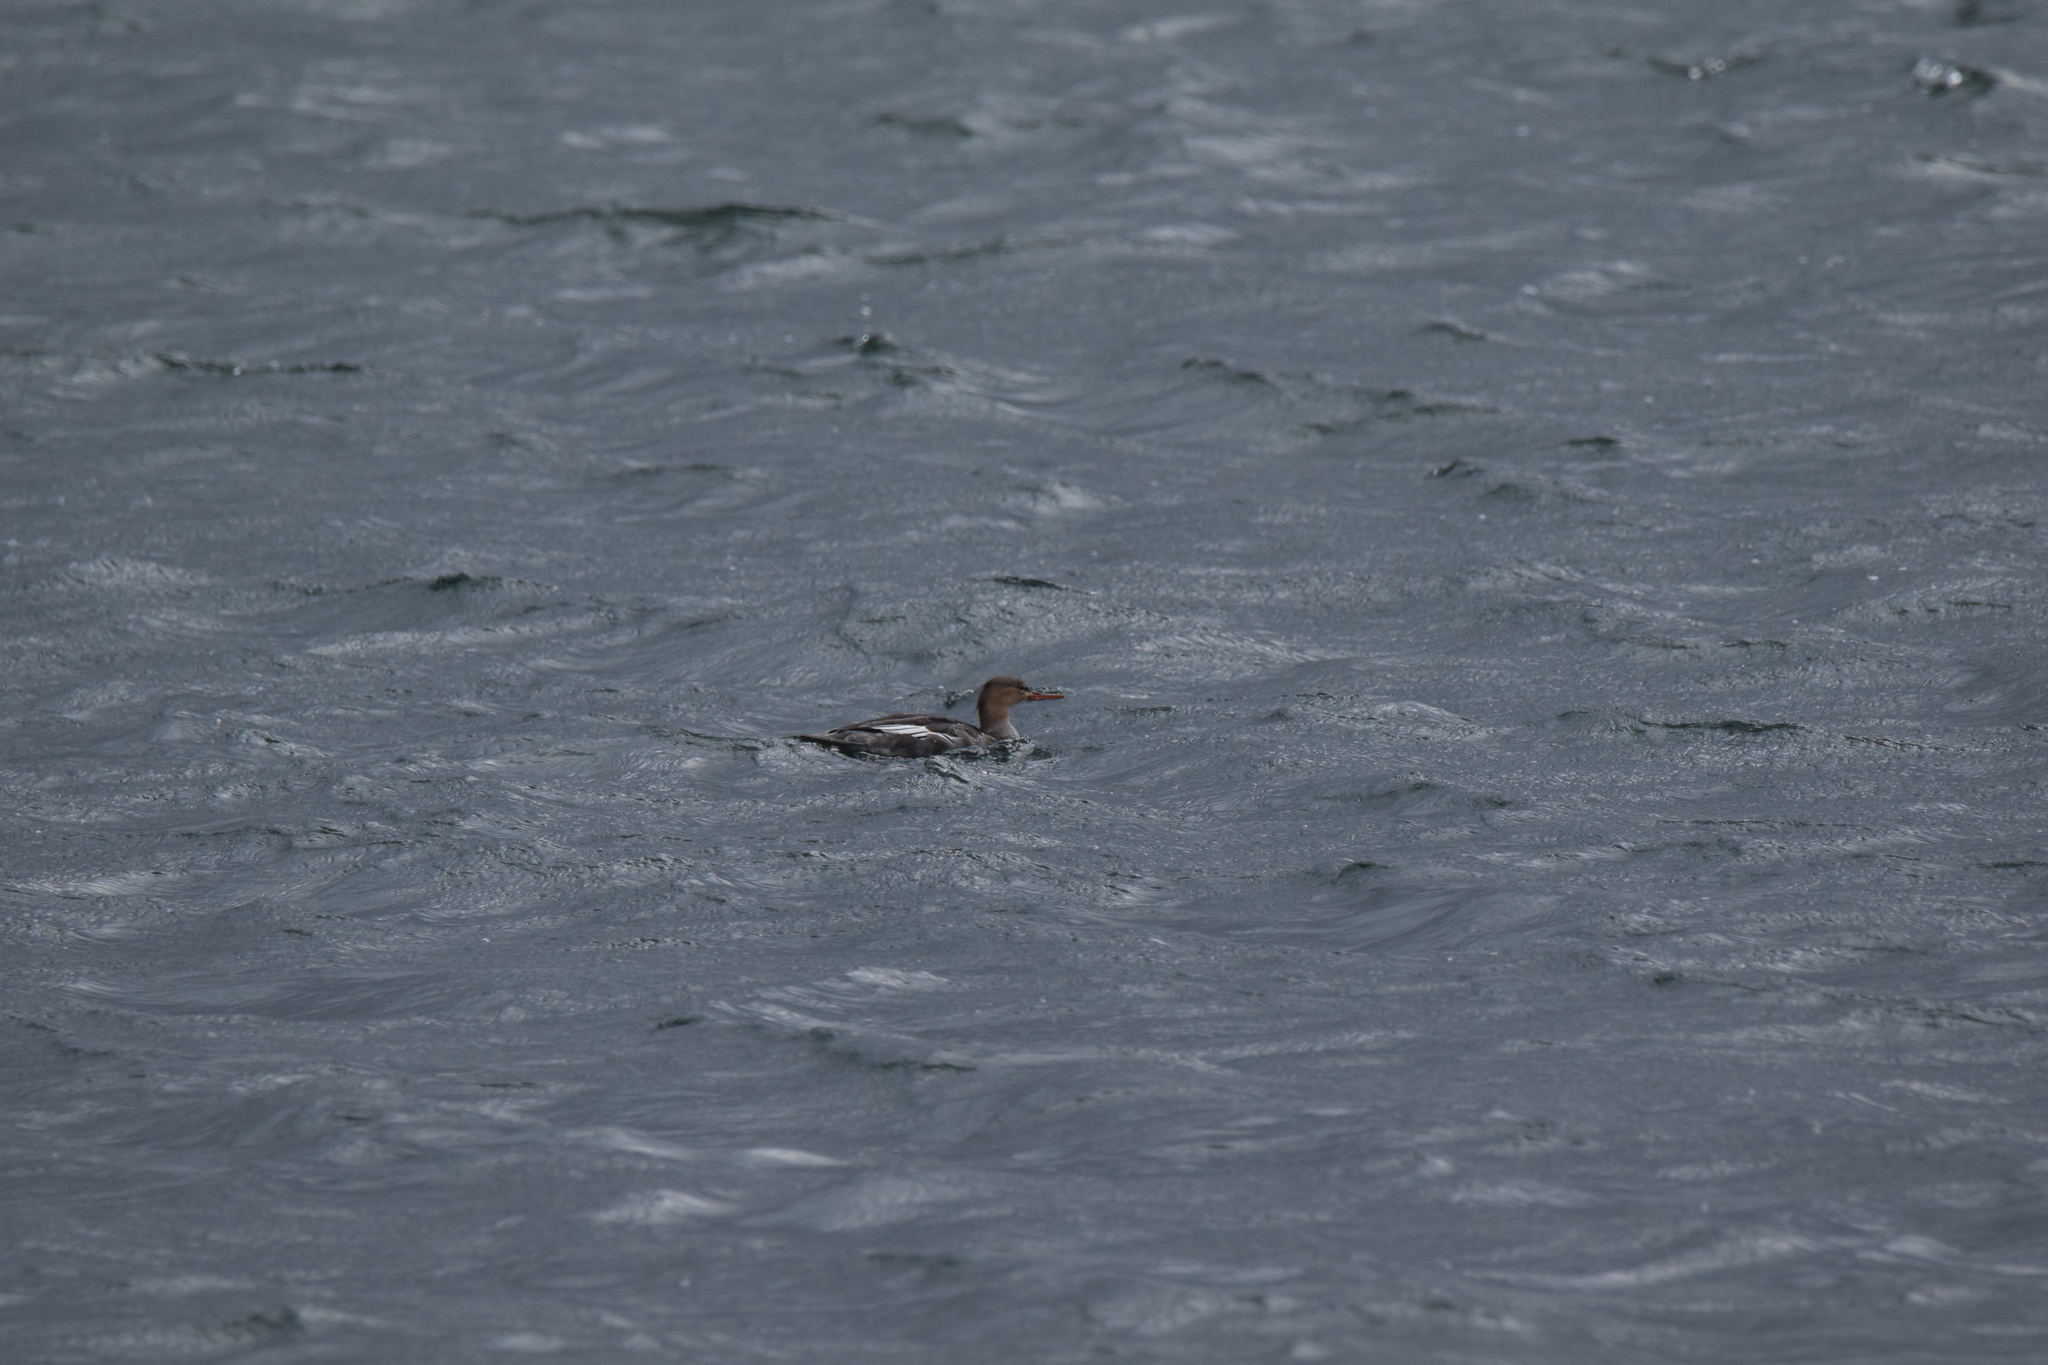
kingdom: Animalia
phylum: Chordata
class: Aves
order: Anseriformes
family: Anatidae
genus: Mergus
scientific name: Mergus serrator
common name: Red-breasted merganser
